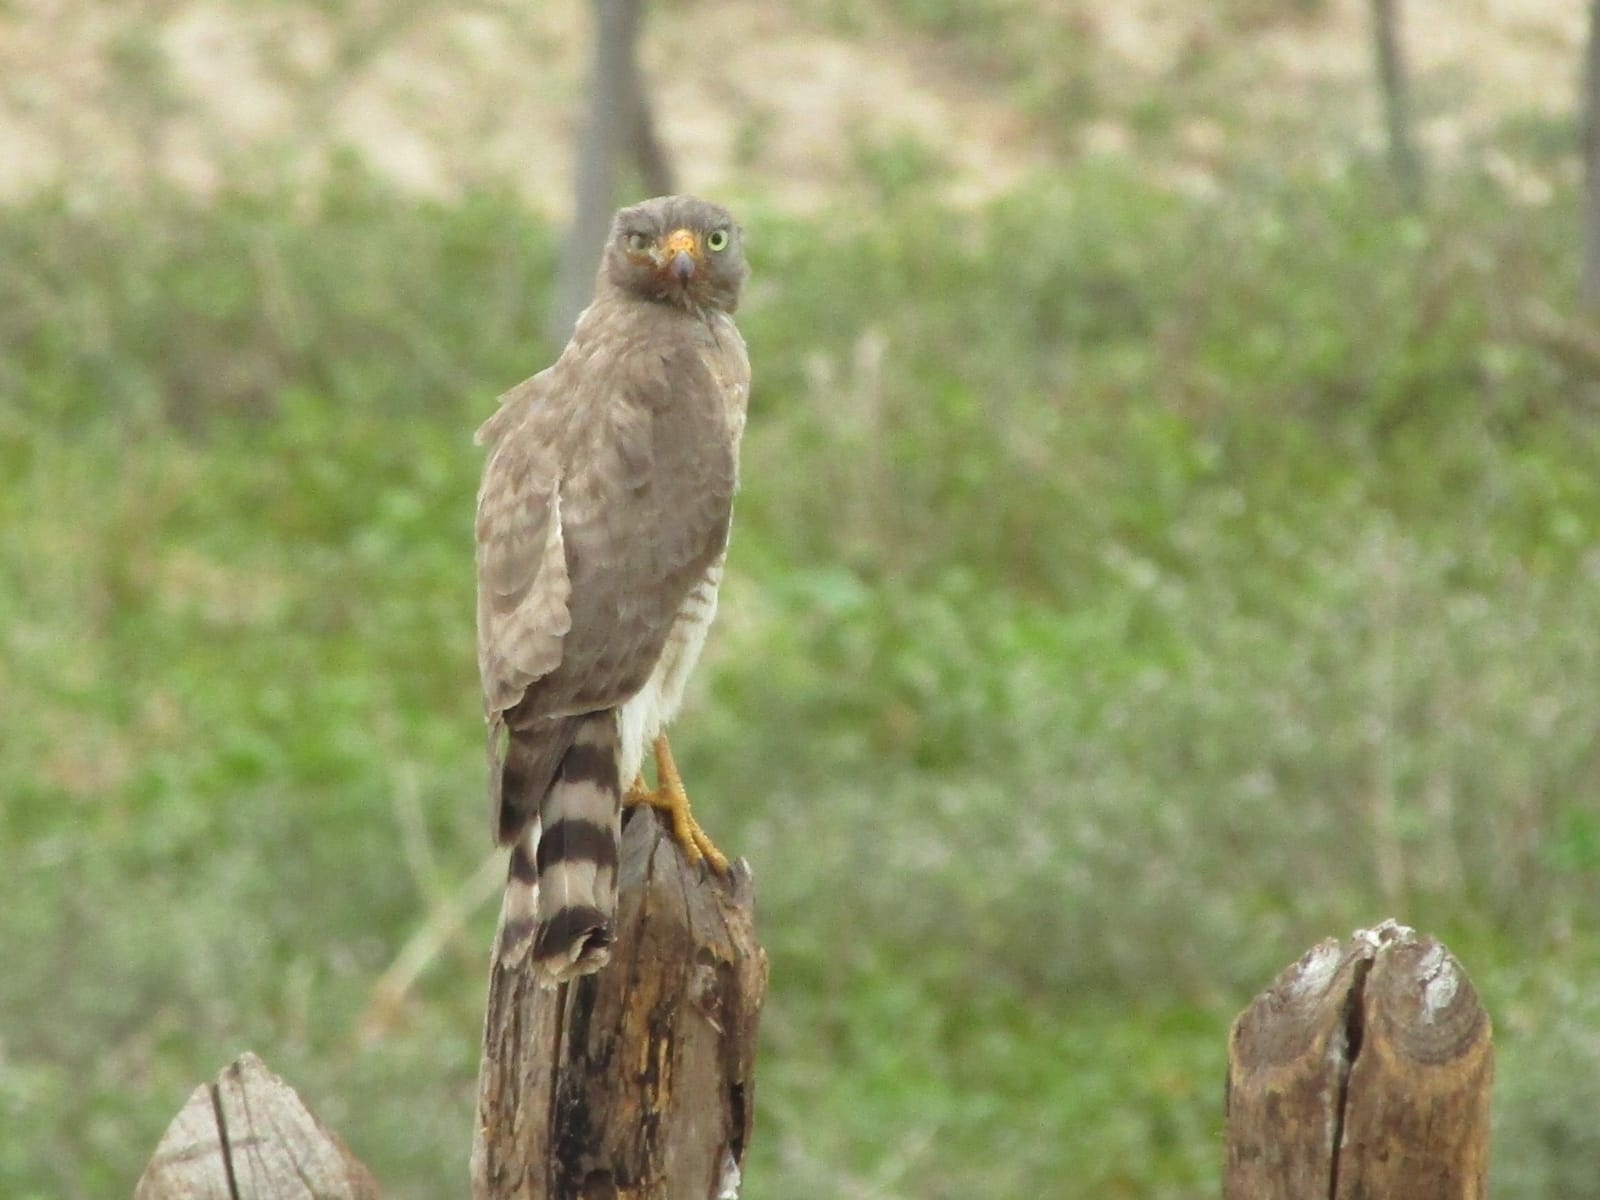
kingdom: Animalia
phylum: Chordata
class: Aves
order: Accipitriformes
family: Accipitridae
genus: Rupornis
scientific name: Rupornis magnirostris
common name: Roadside hawk
